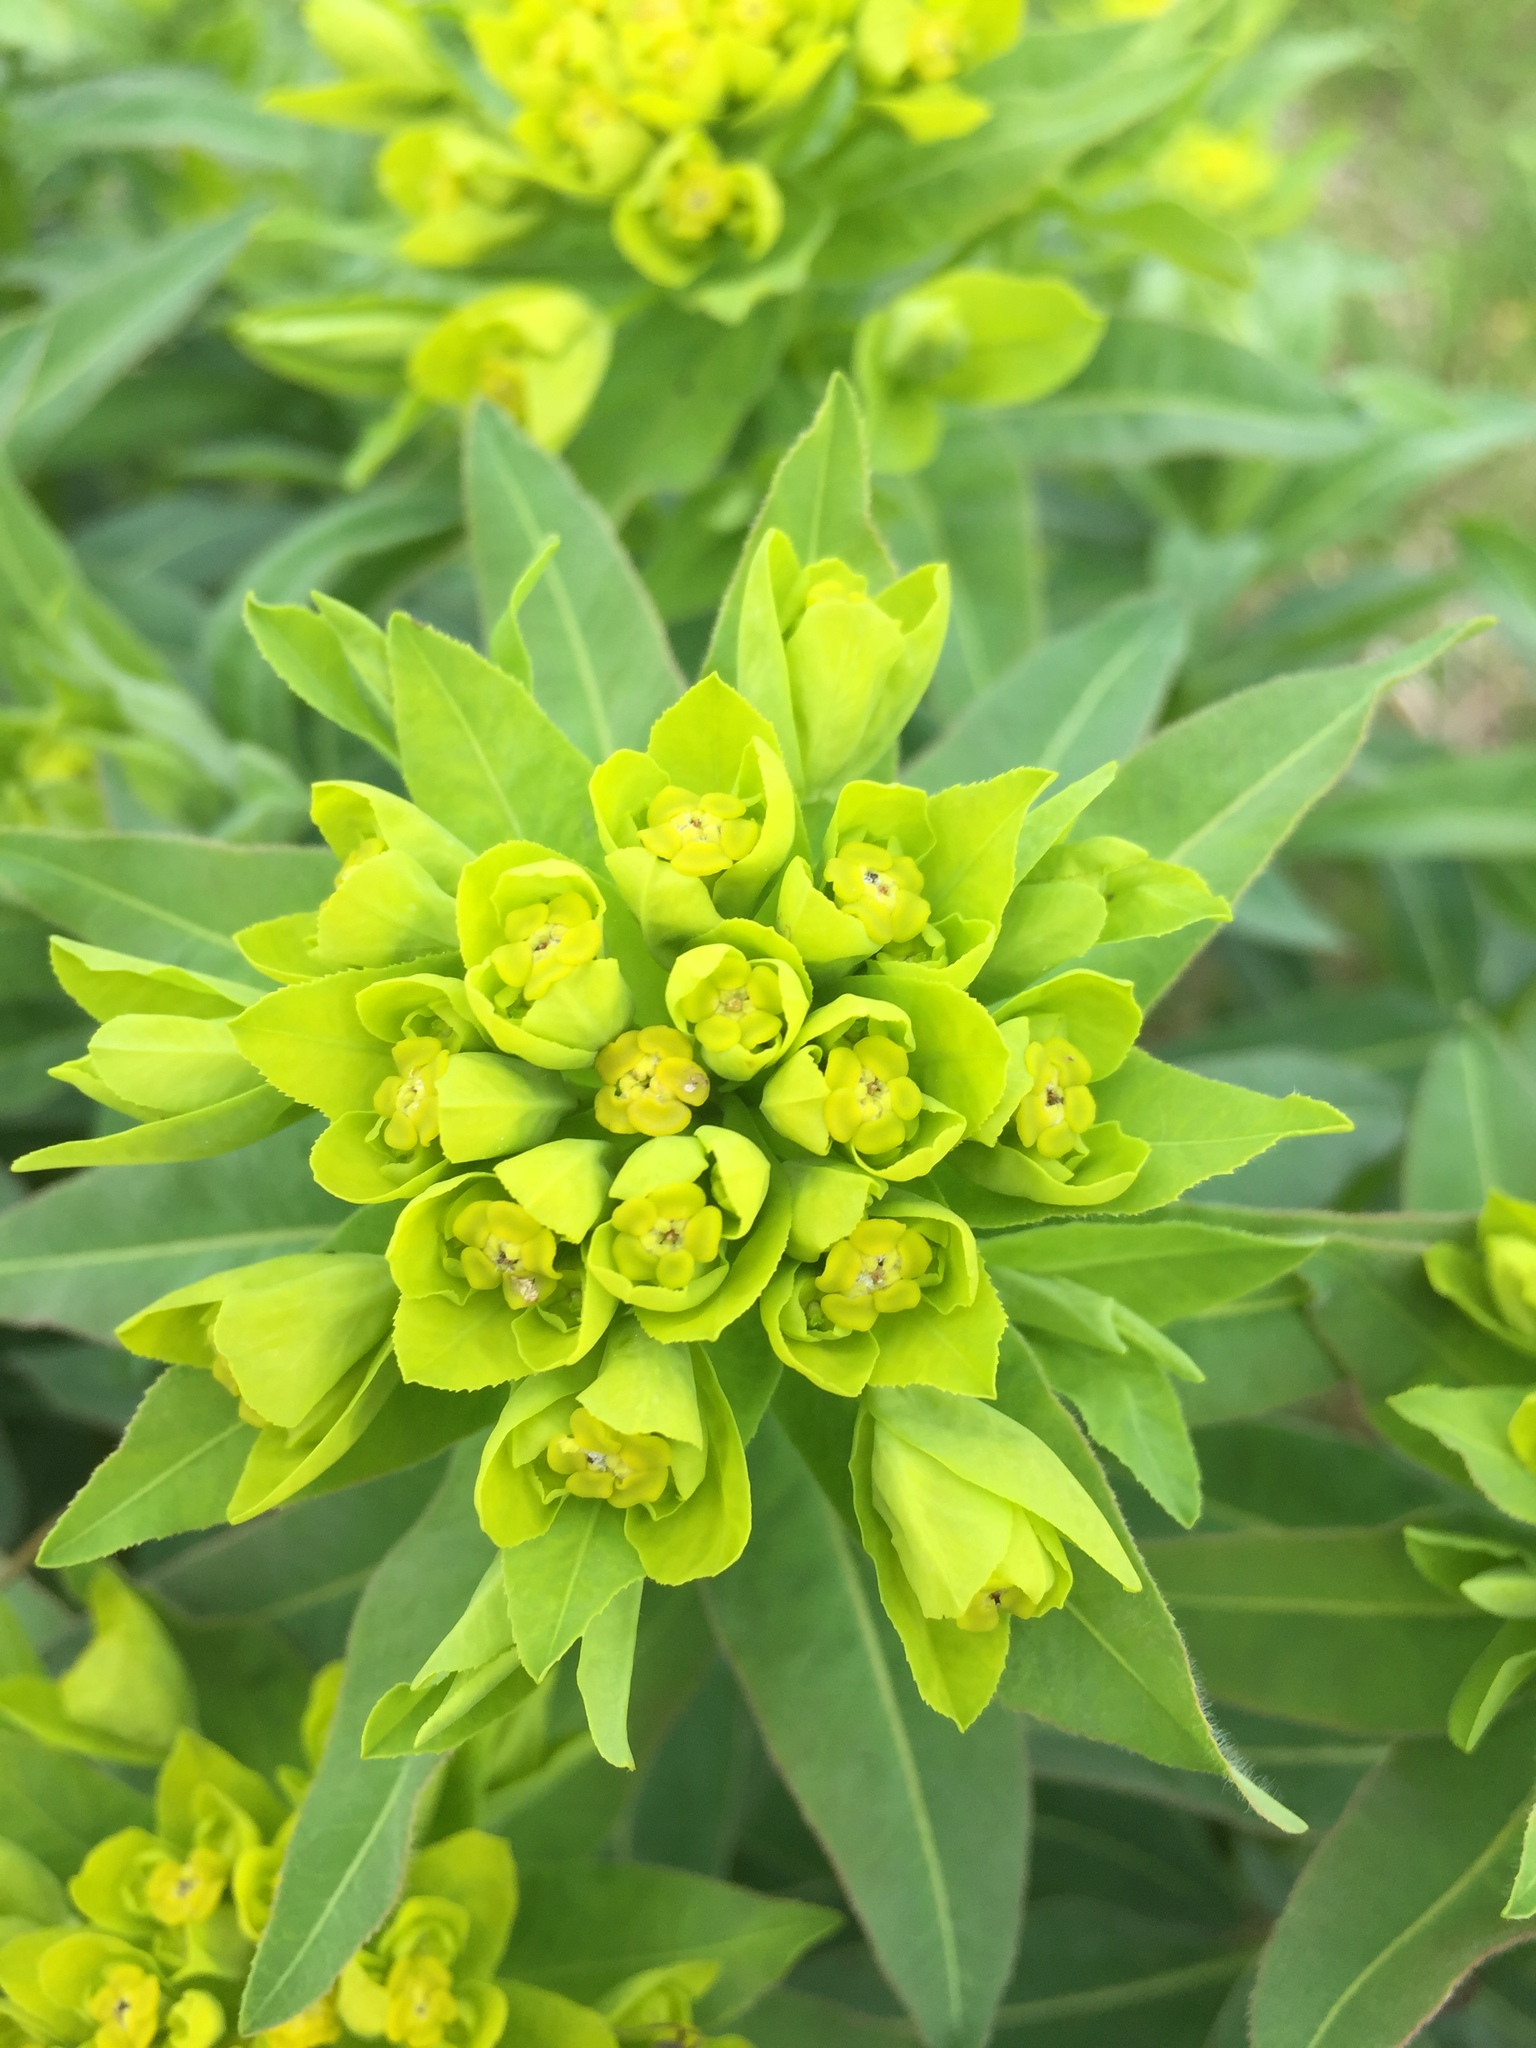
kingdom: Plantae
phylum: Tracheophyta
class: Magnoliopsida
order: Malpighiales
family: Euphorbiaceae
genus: Euphorbia
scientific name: Euphorbia semivillosa
